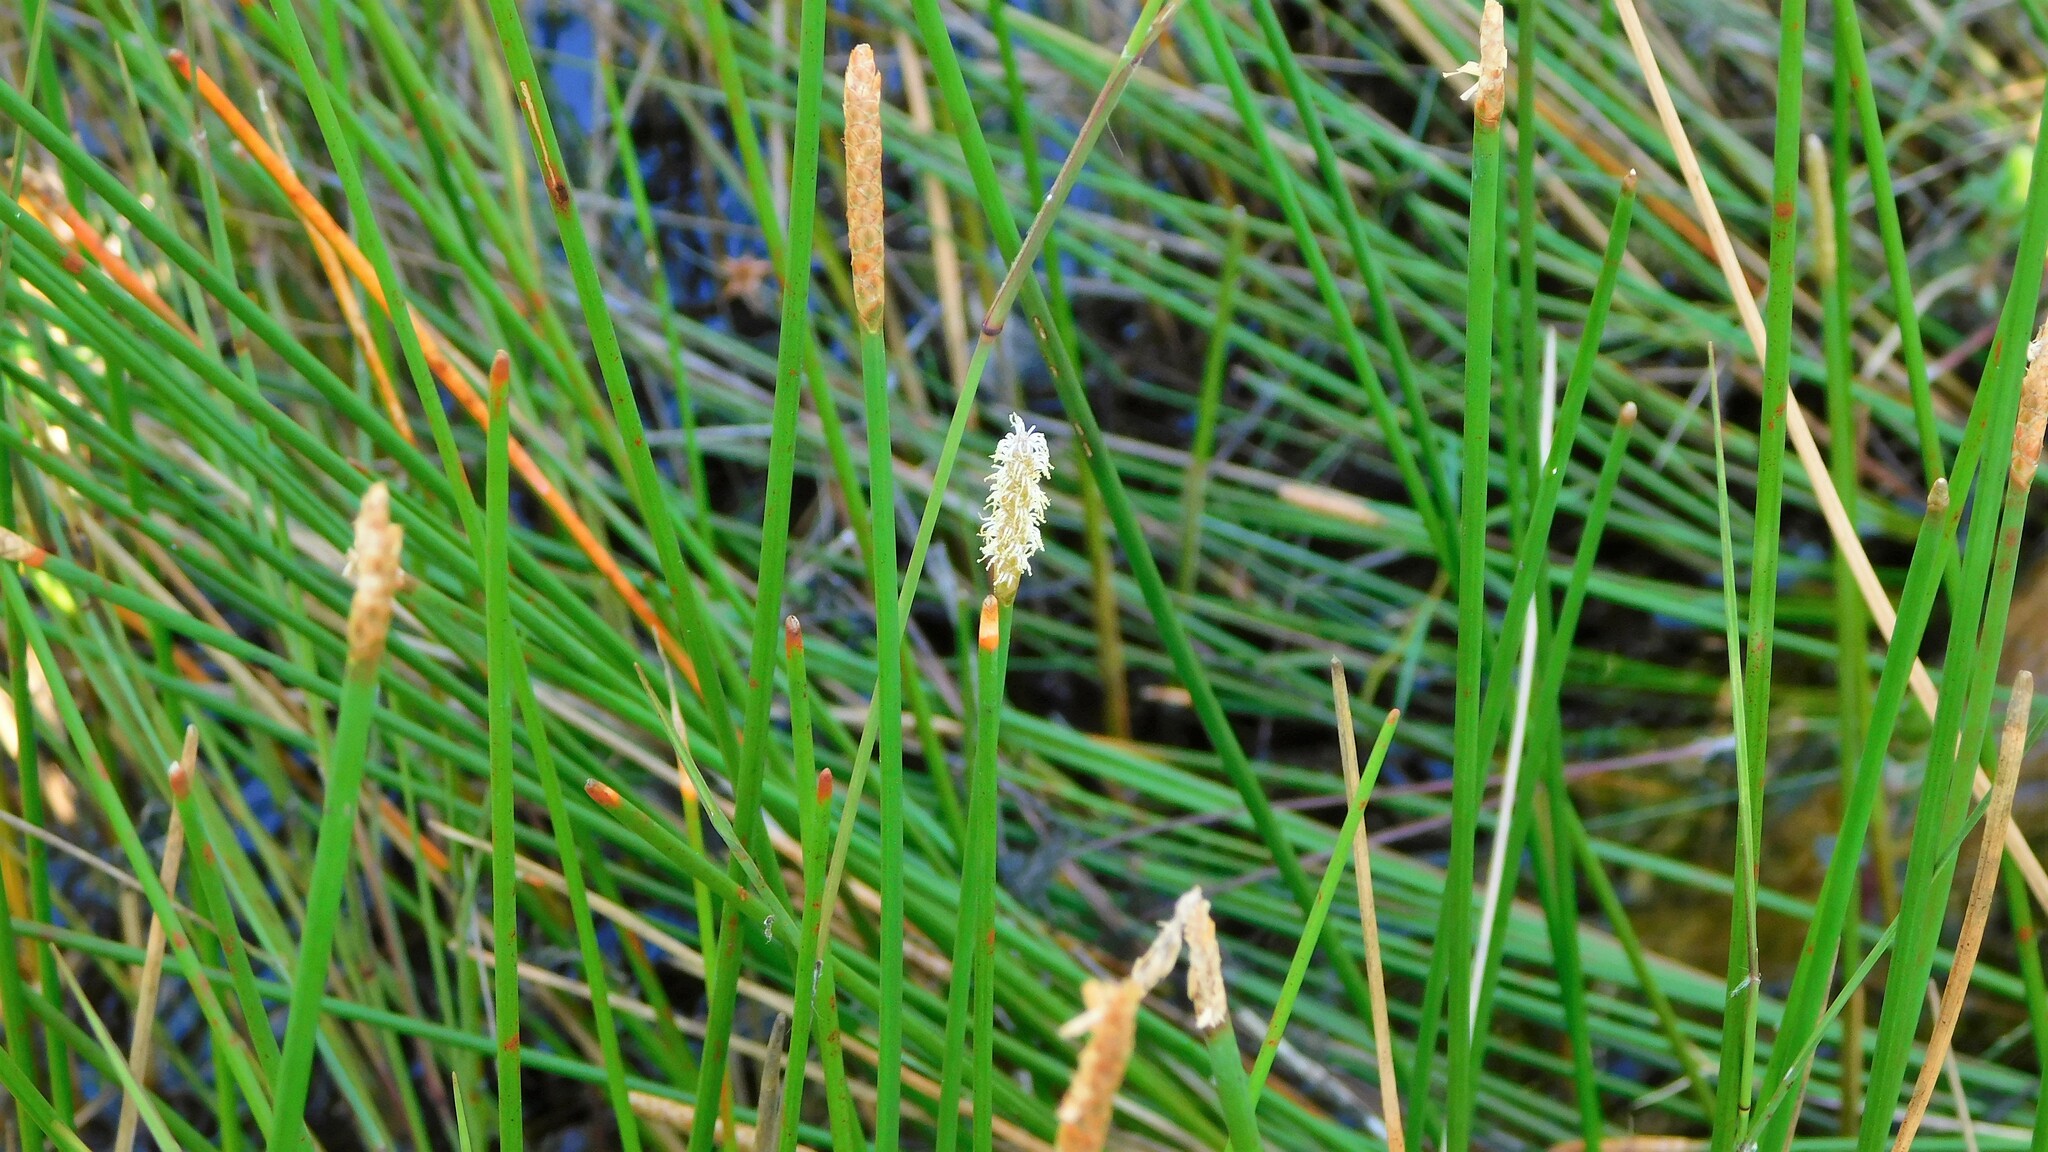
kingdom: Plantae
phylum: Tracheophyta
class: Liliopsida
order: Poales
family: Cyperaceae
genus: Eleocharis
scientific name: Eleocharis cellulosa
